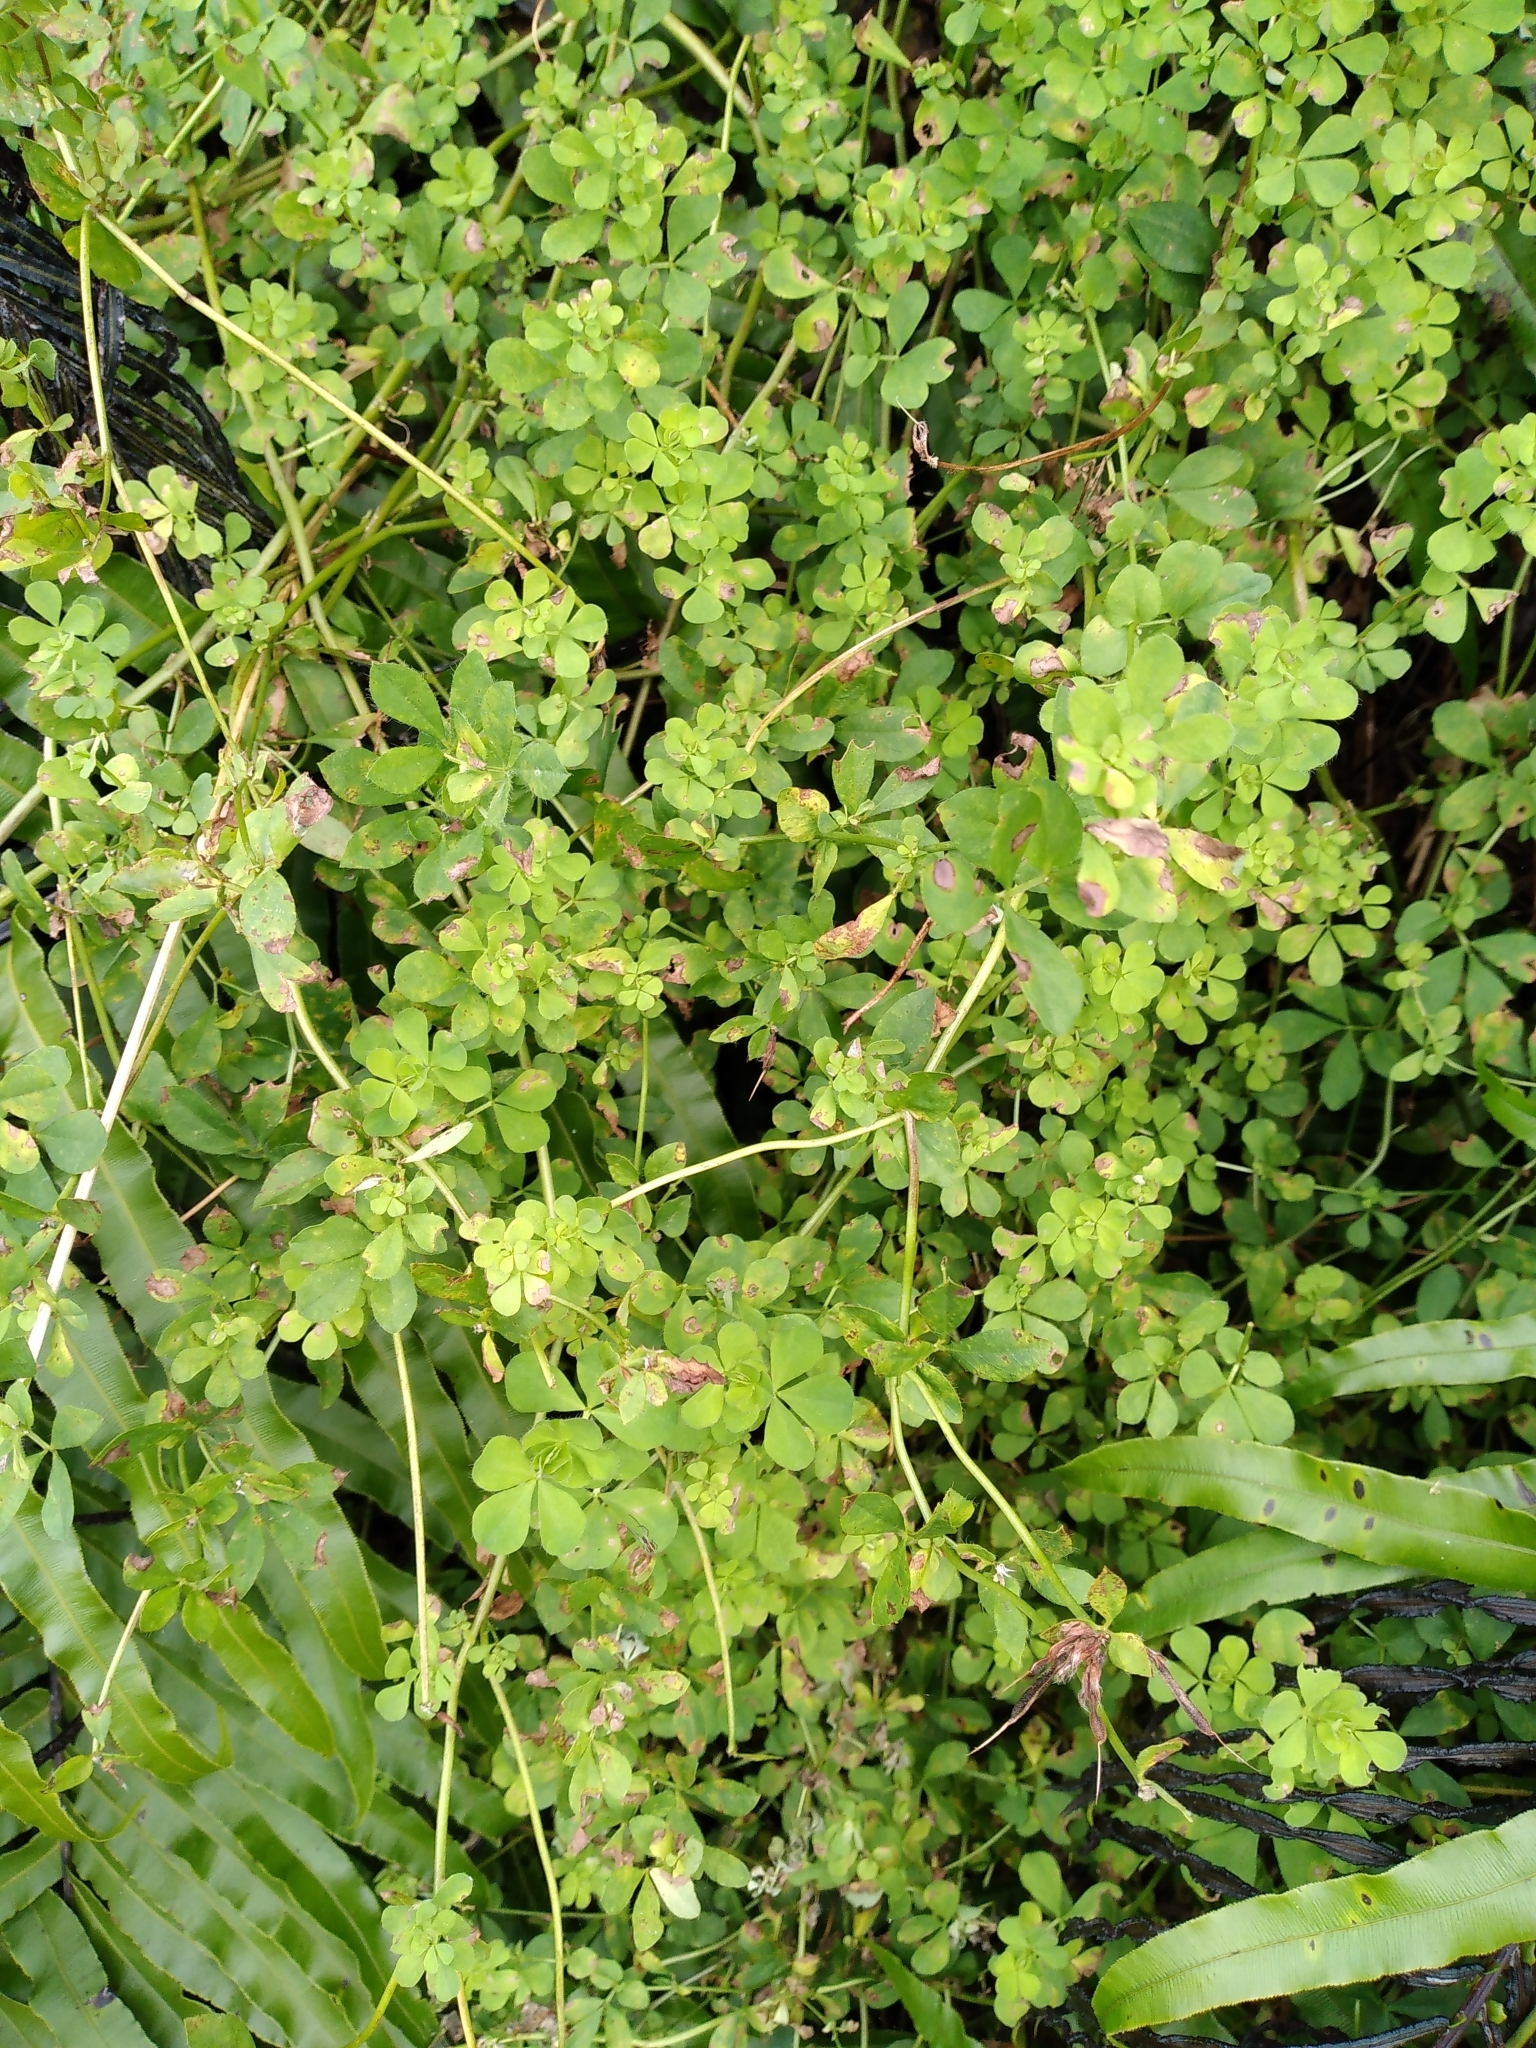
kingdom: Plantae
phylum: Tracheophyta
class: Magnoliopsida
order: Fabales
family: Fabaceae
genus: Lotus
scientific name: Lotus pedunculatus
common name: Greater birdsfoot-trefoil
